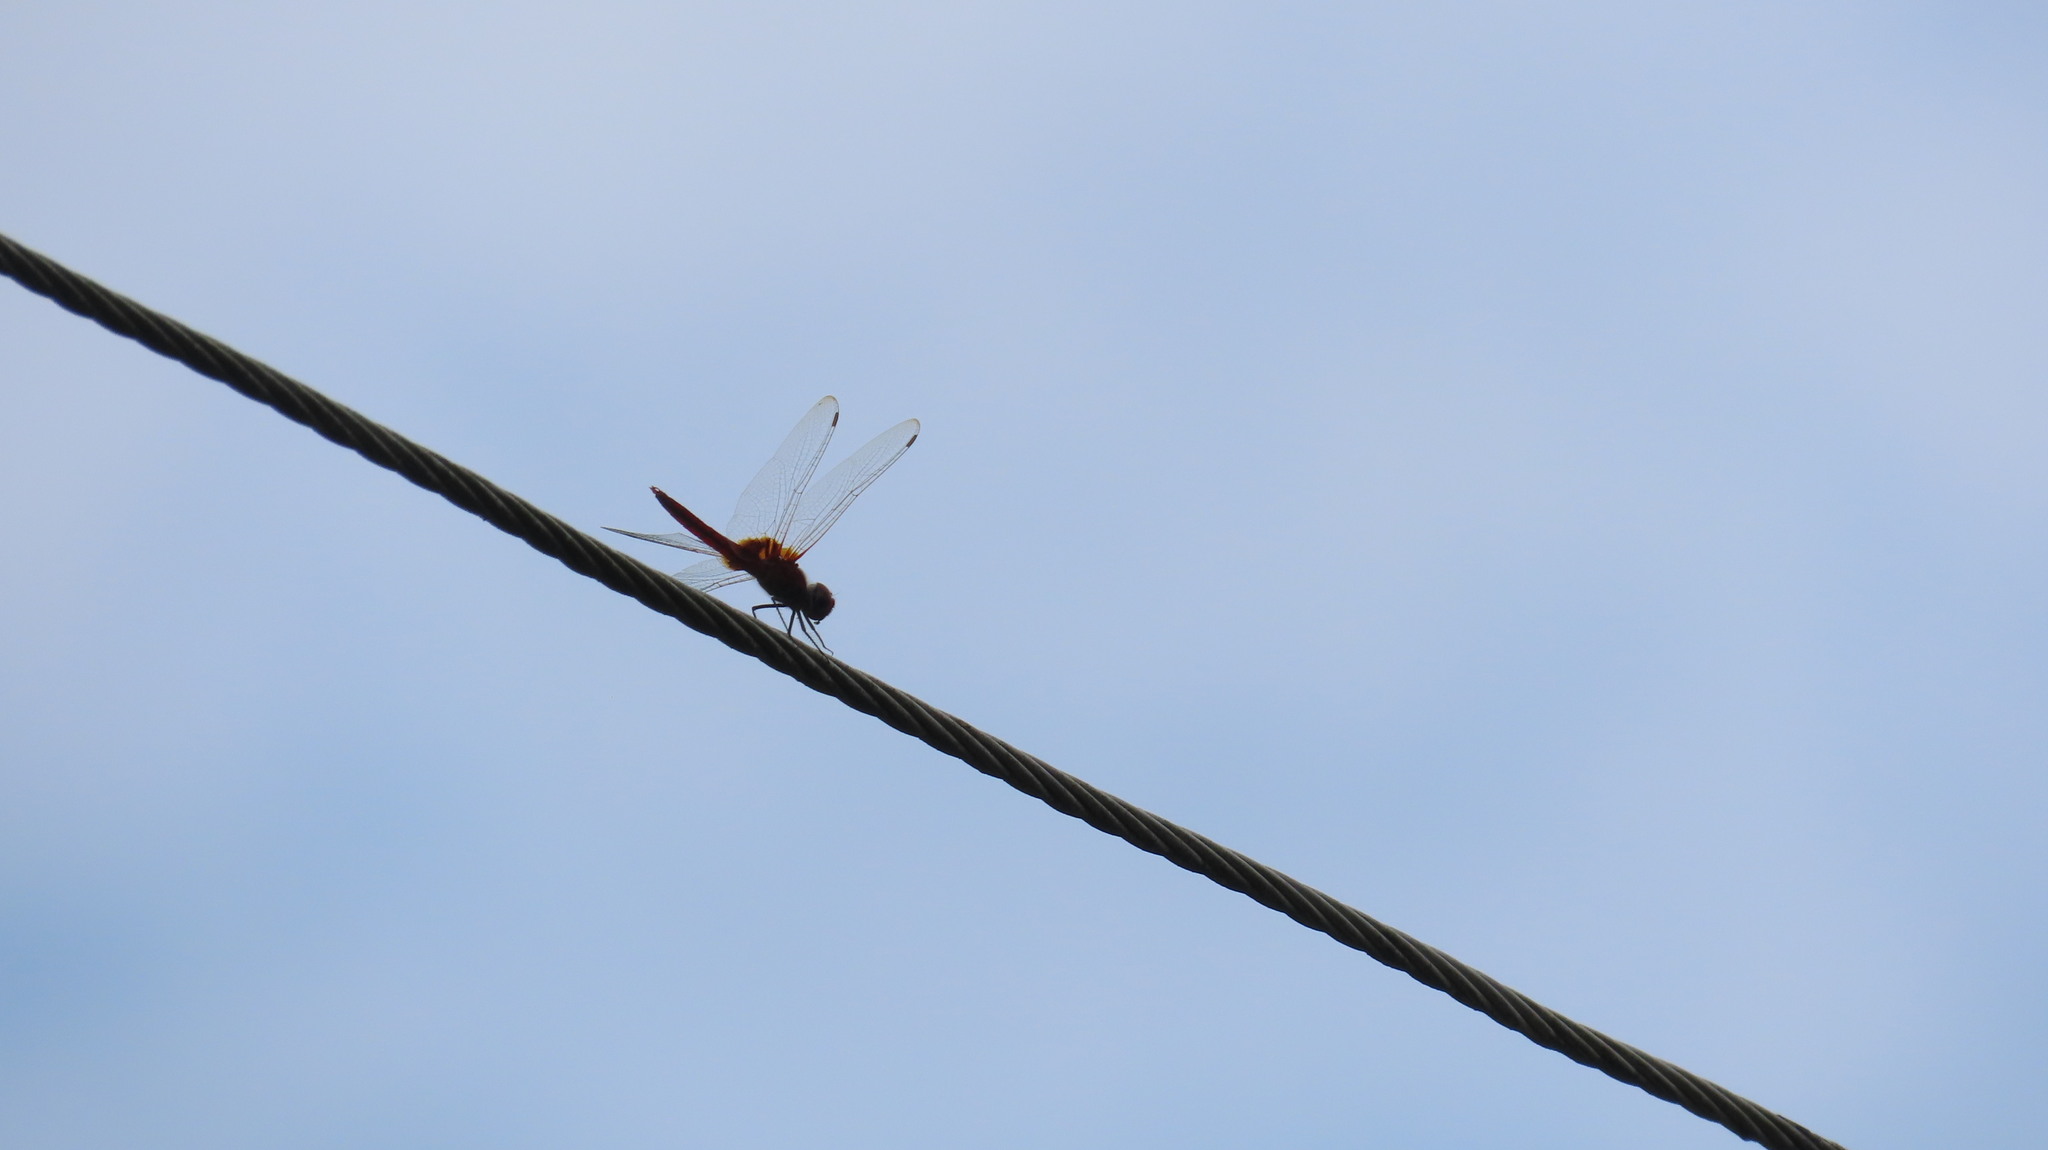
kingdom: Animalia
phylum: Arthropoda
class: Insecta
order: Odonata
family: Libellulidae
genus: Urothemis
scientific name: Urothemis signata
